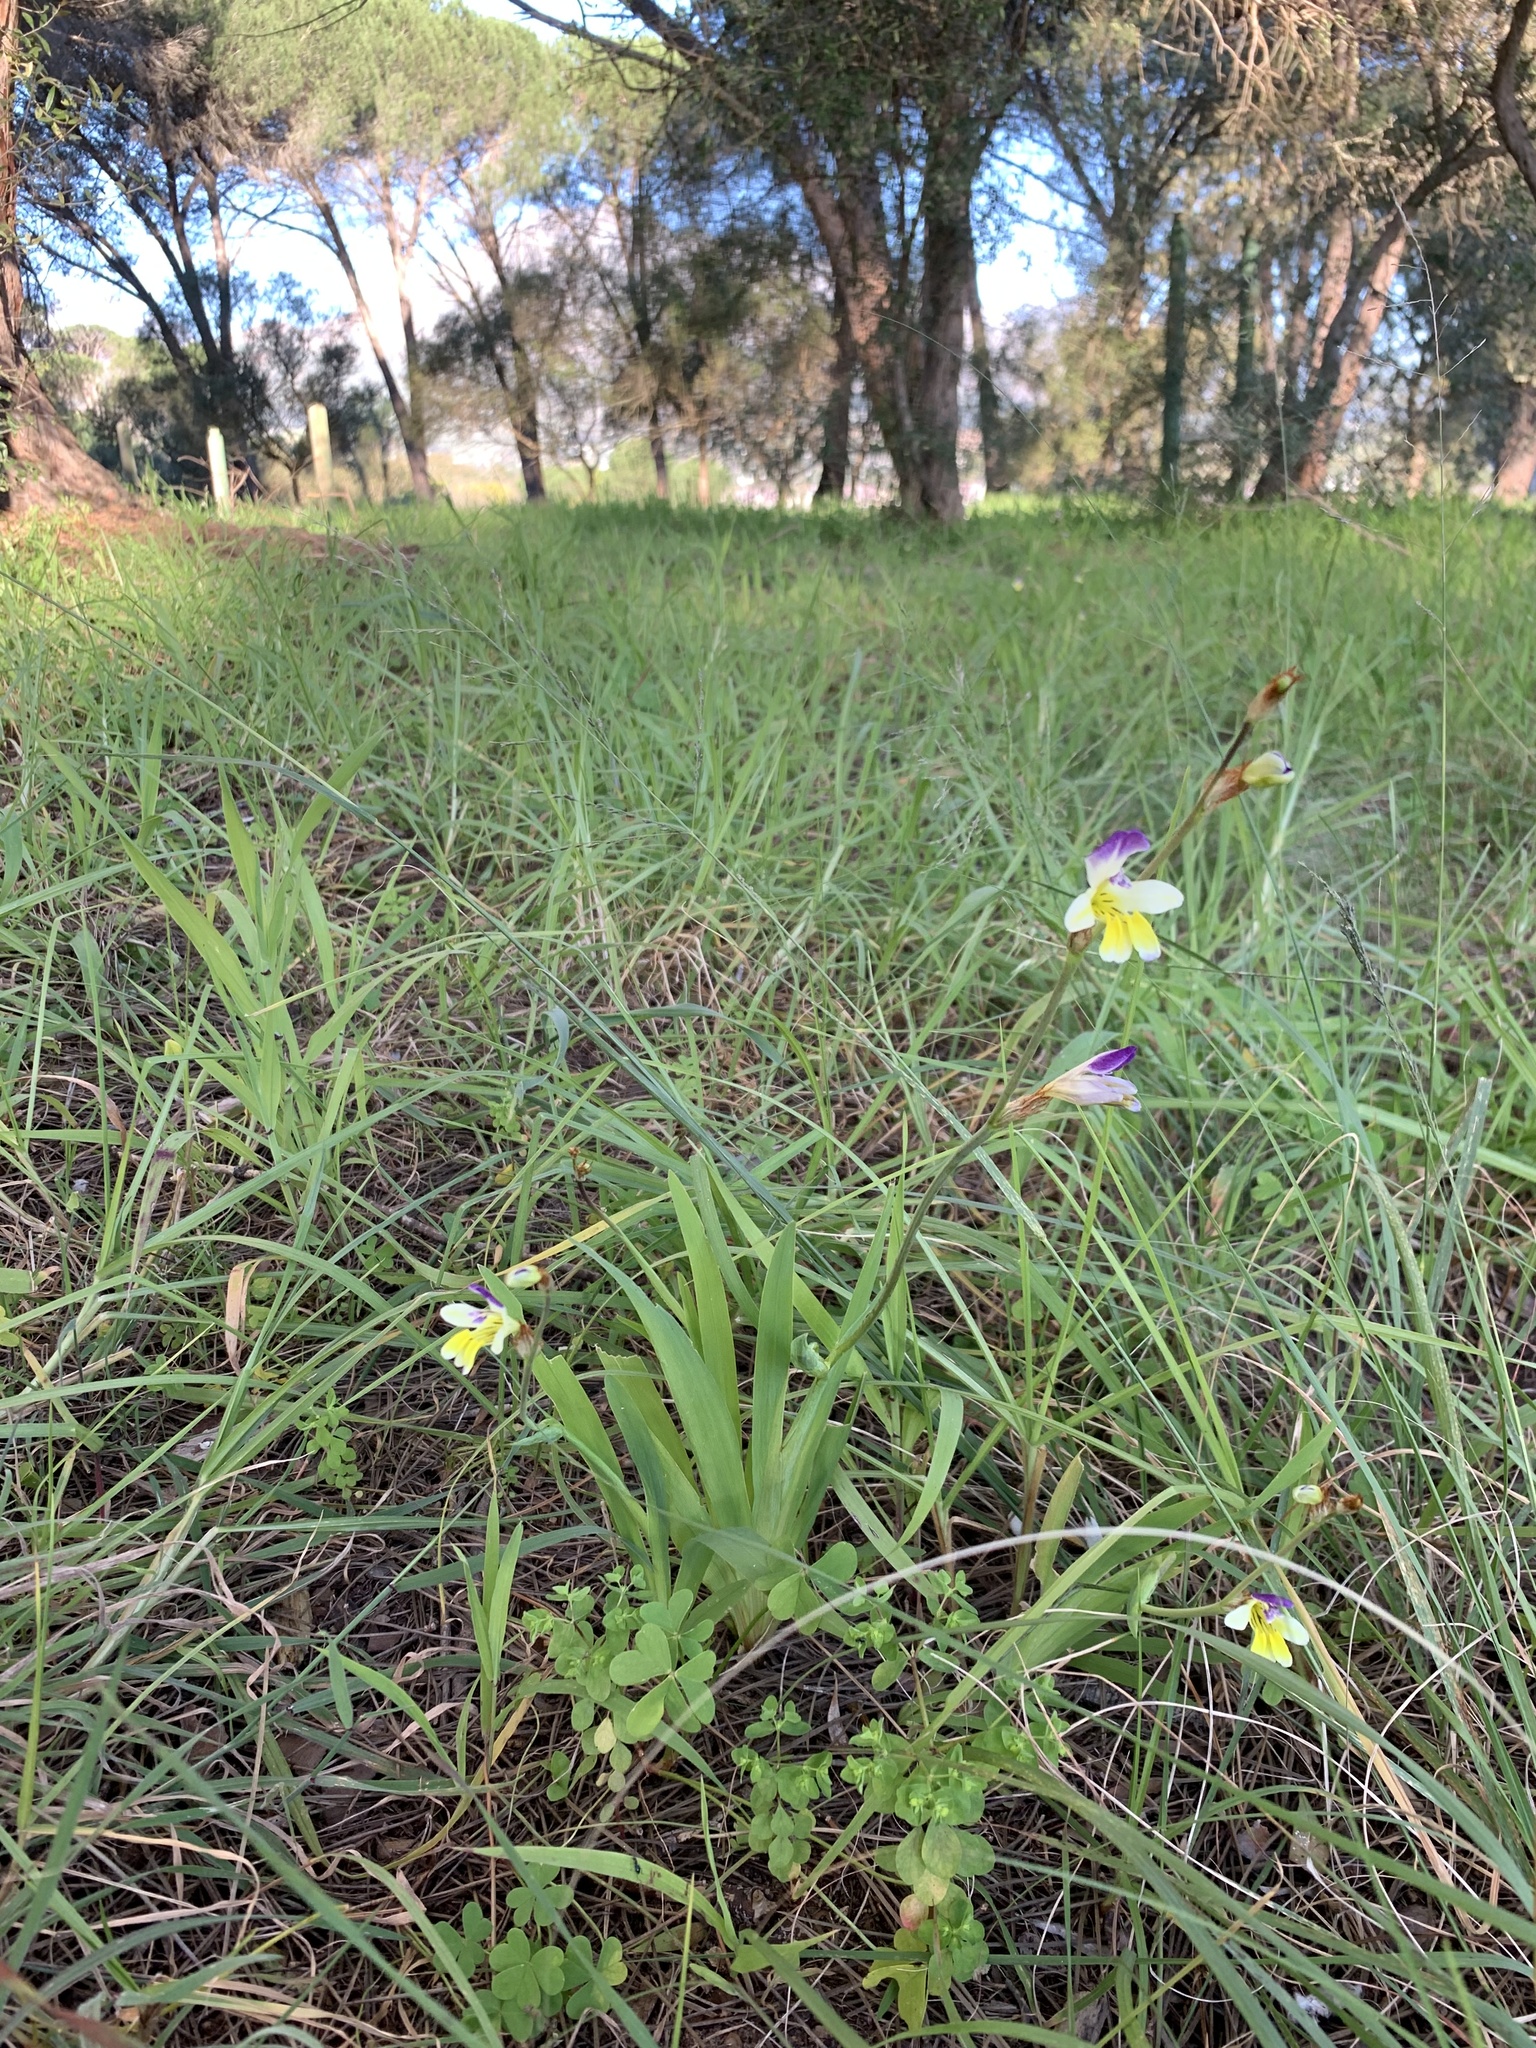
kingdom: Plantae
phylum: Tracheophyta
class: Liliopsida
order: Asparagales
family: Iridaceae
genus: Sparaxis
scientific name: Sparaxis villosa
